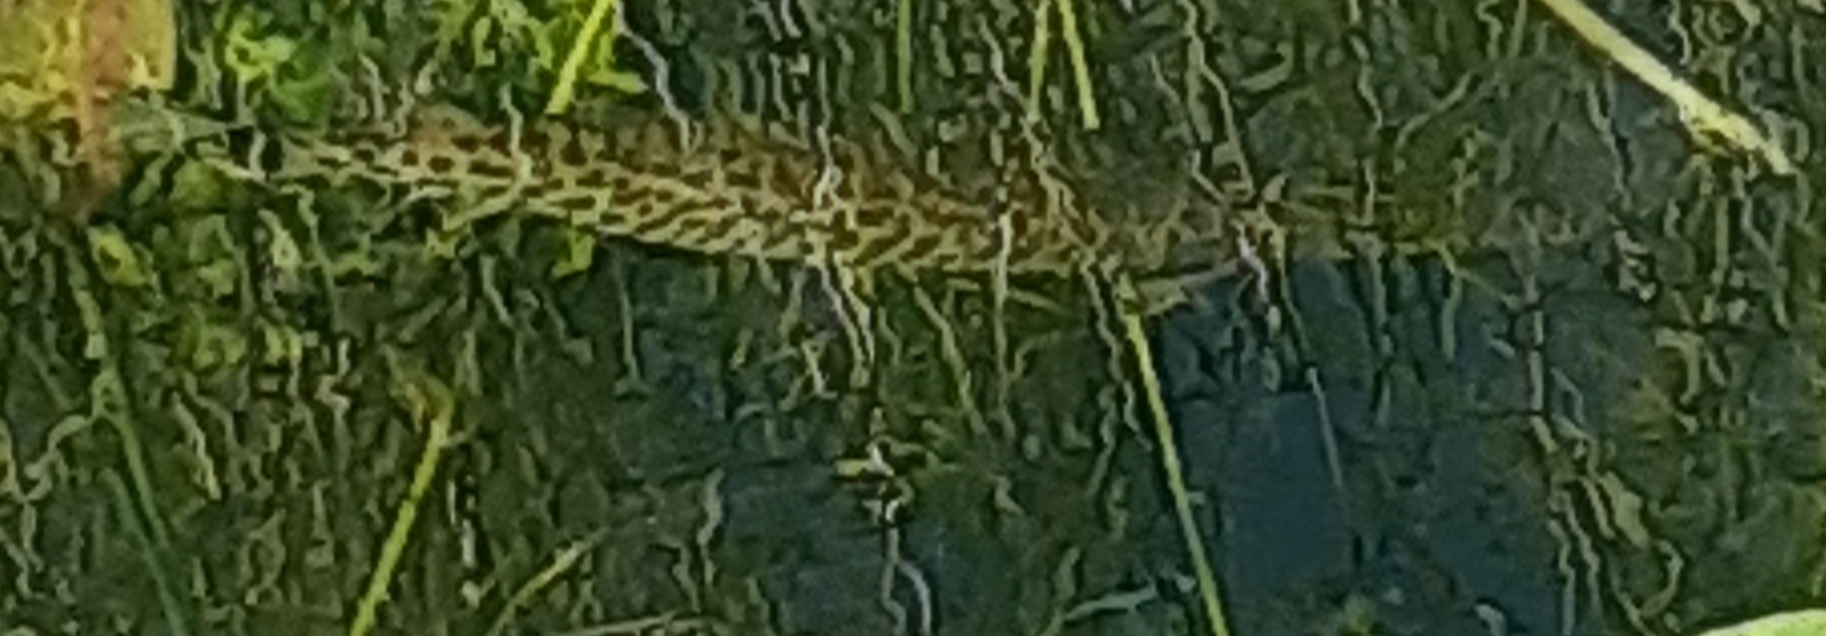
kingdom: Animalia
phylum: Chordata
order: Lepisosteiformes
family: Lepisosteidae
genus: Lepisosteus
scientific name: Lepisosteus platyrhincus
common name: Florida gar
